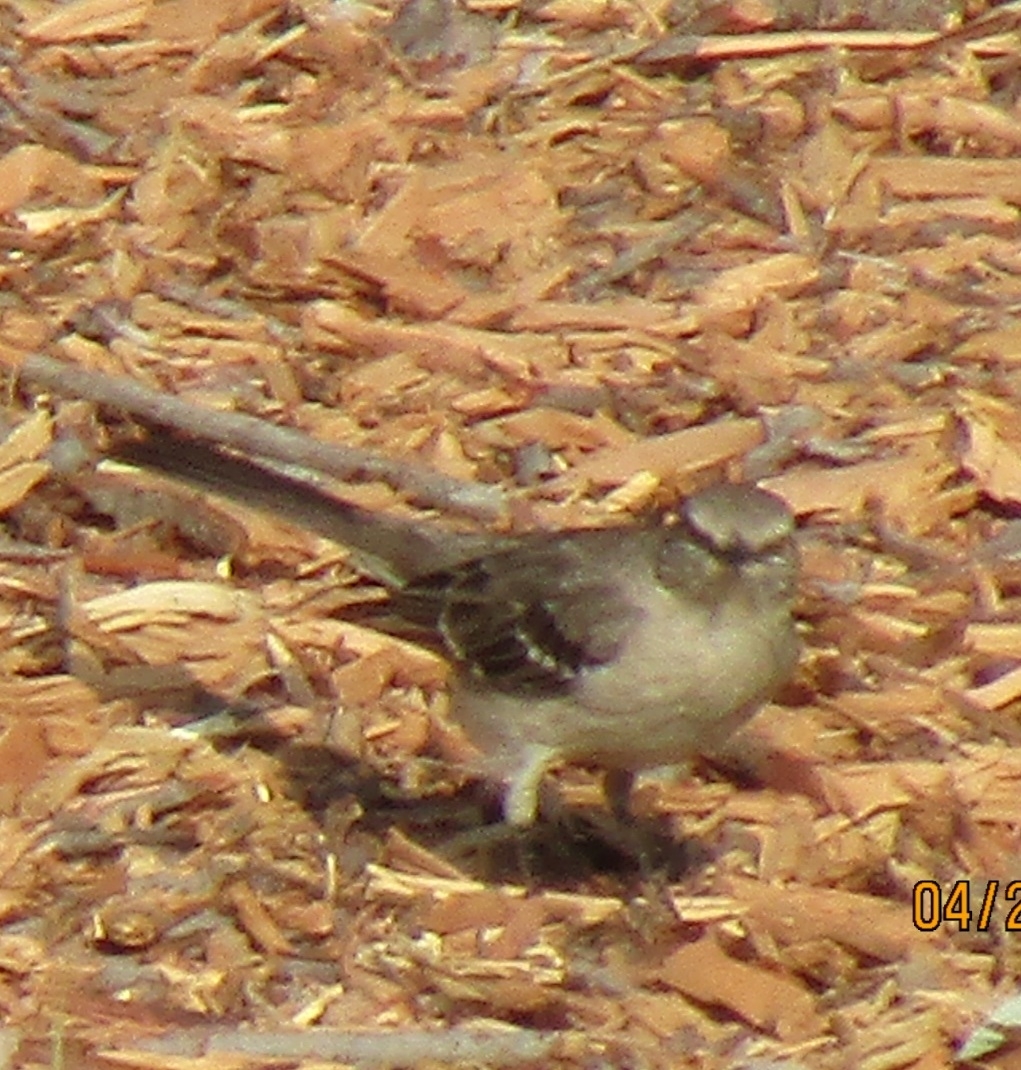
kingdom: Animalia
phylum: Chordata
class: Aves
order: Passeriformes
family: Mimidae
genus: Mimus
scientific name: Mimus polyglottos
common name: Northern mockingbird
